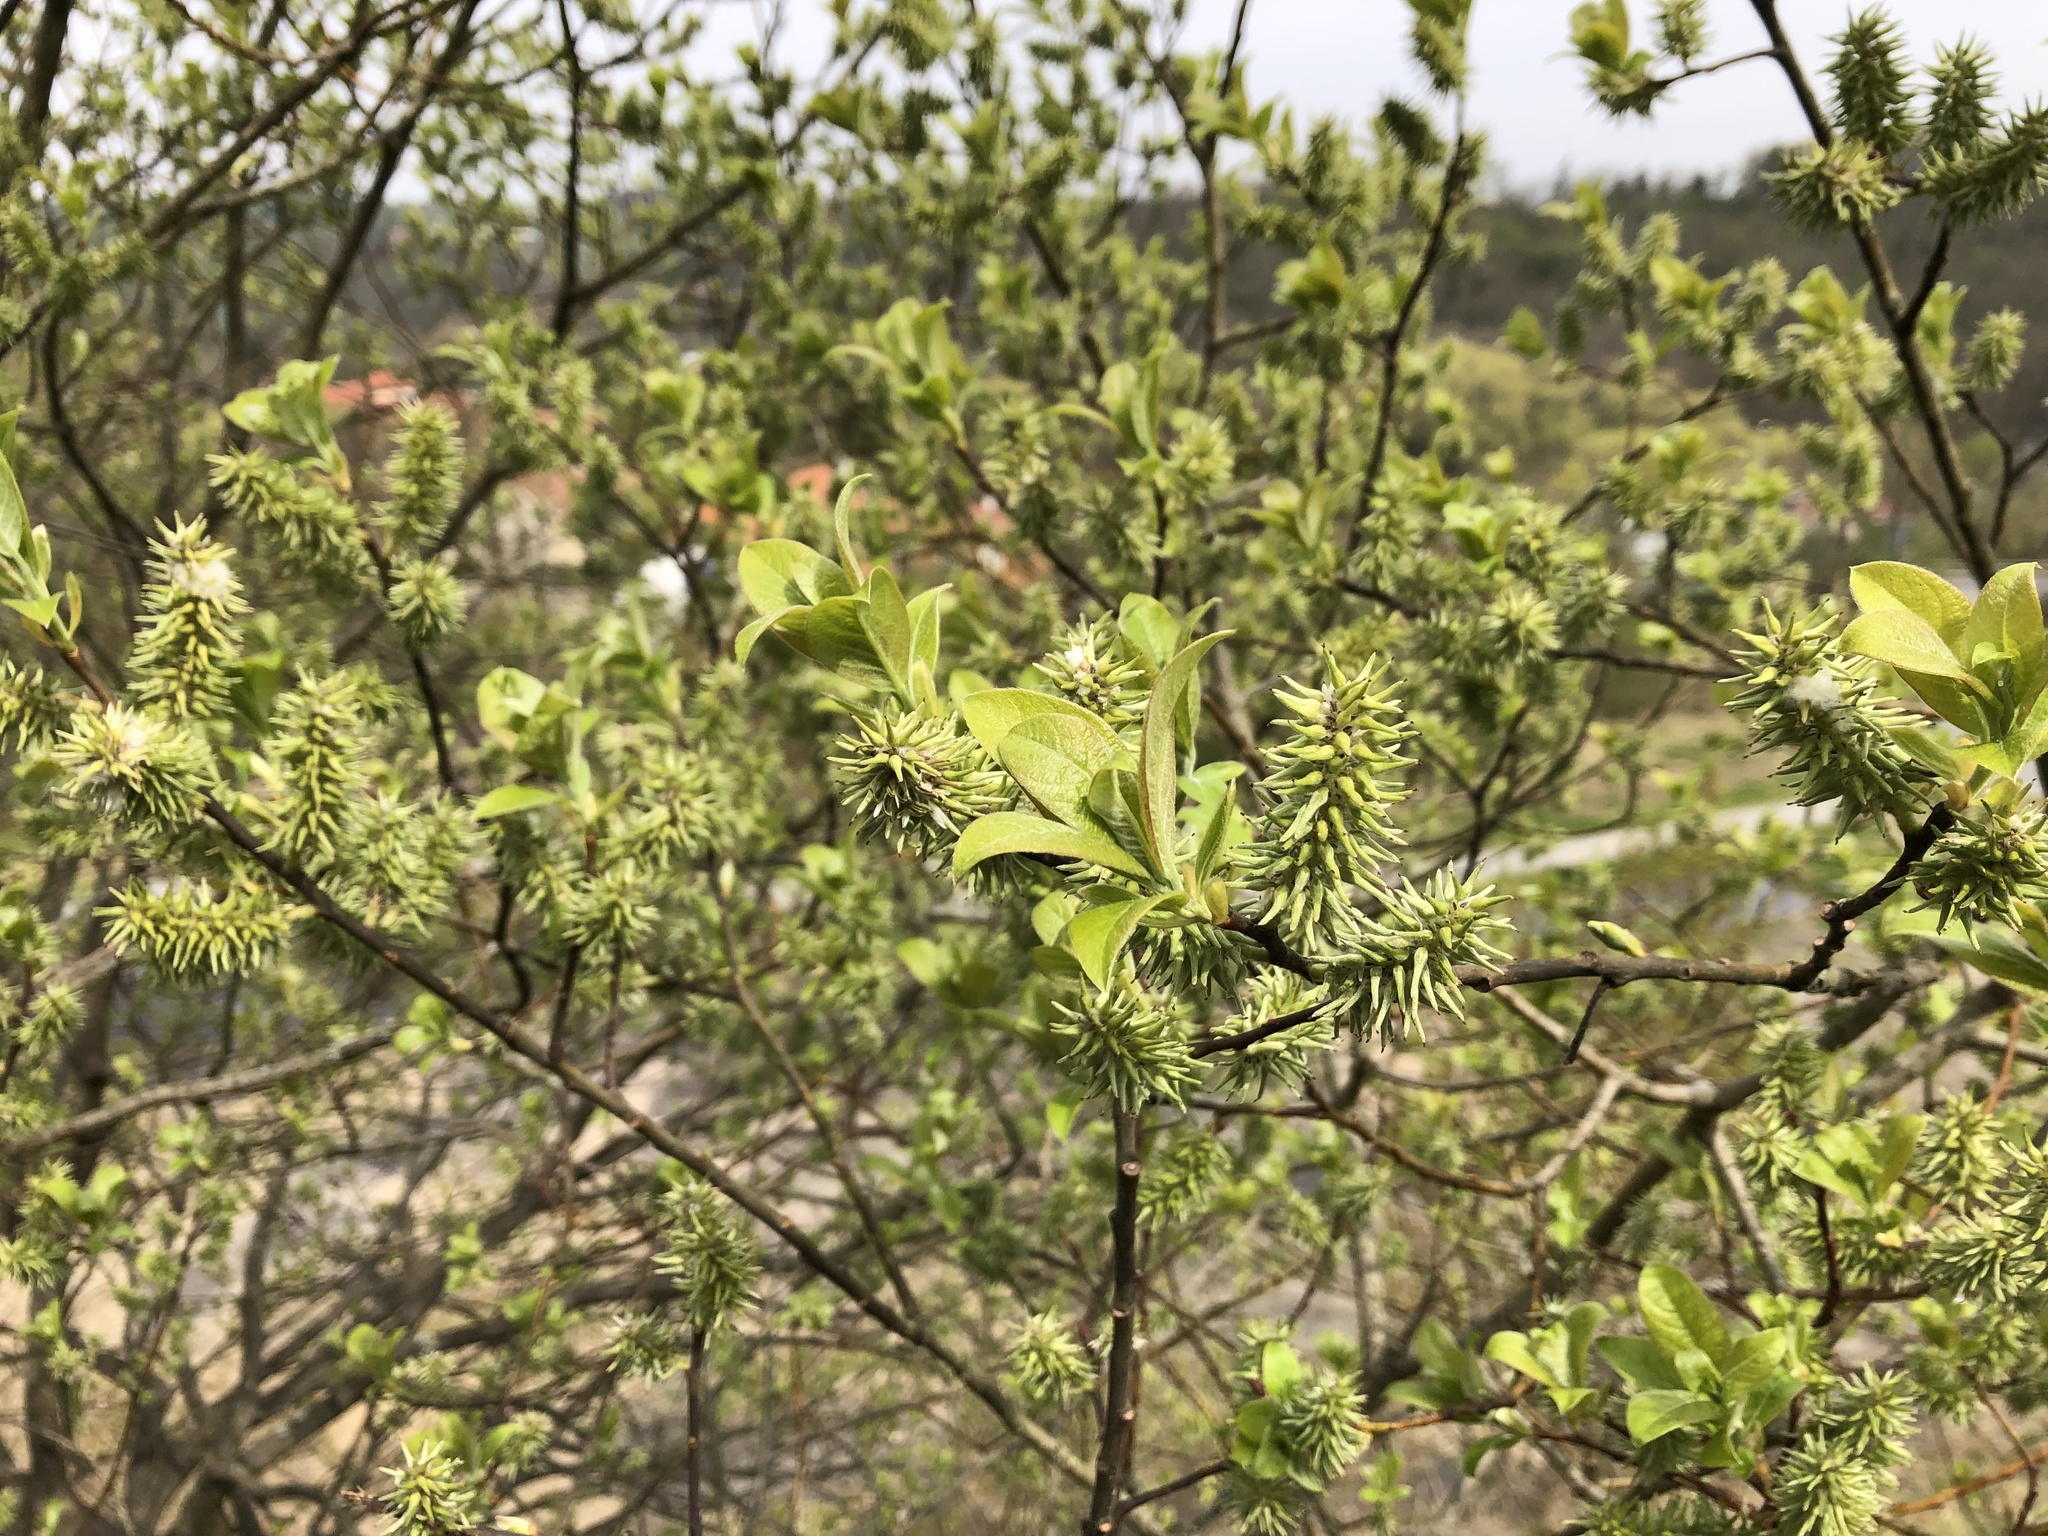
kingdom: Plantae
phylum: Tracheophyta
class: Magnoliopsida
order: Malpighiales
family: Salicaceae
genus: Salix
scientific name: Salix caprea
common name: Goat willow
